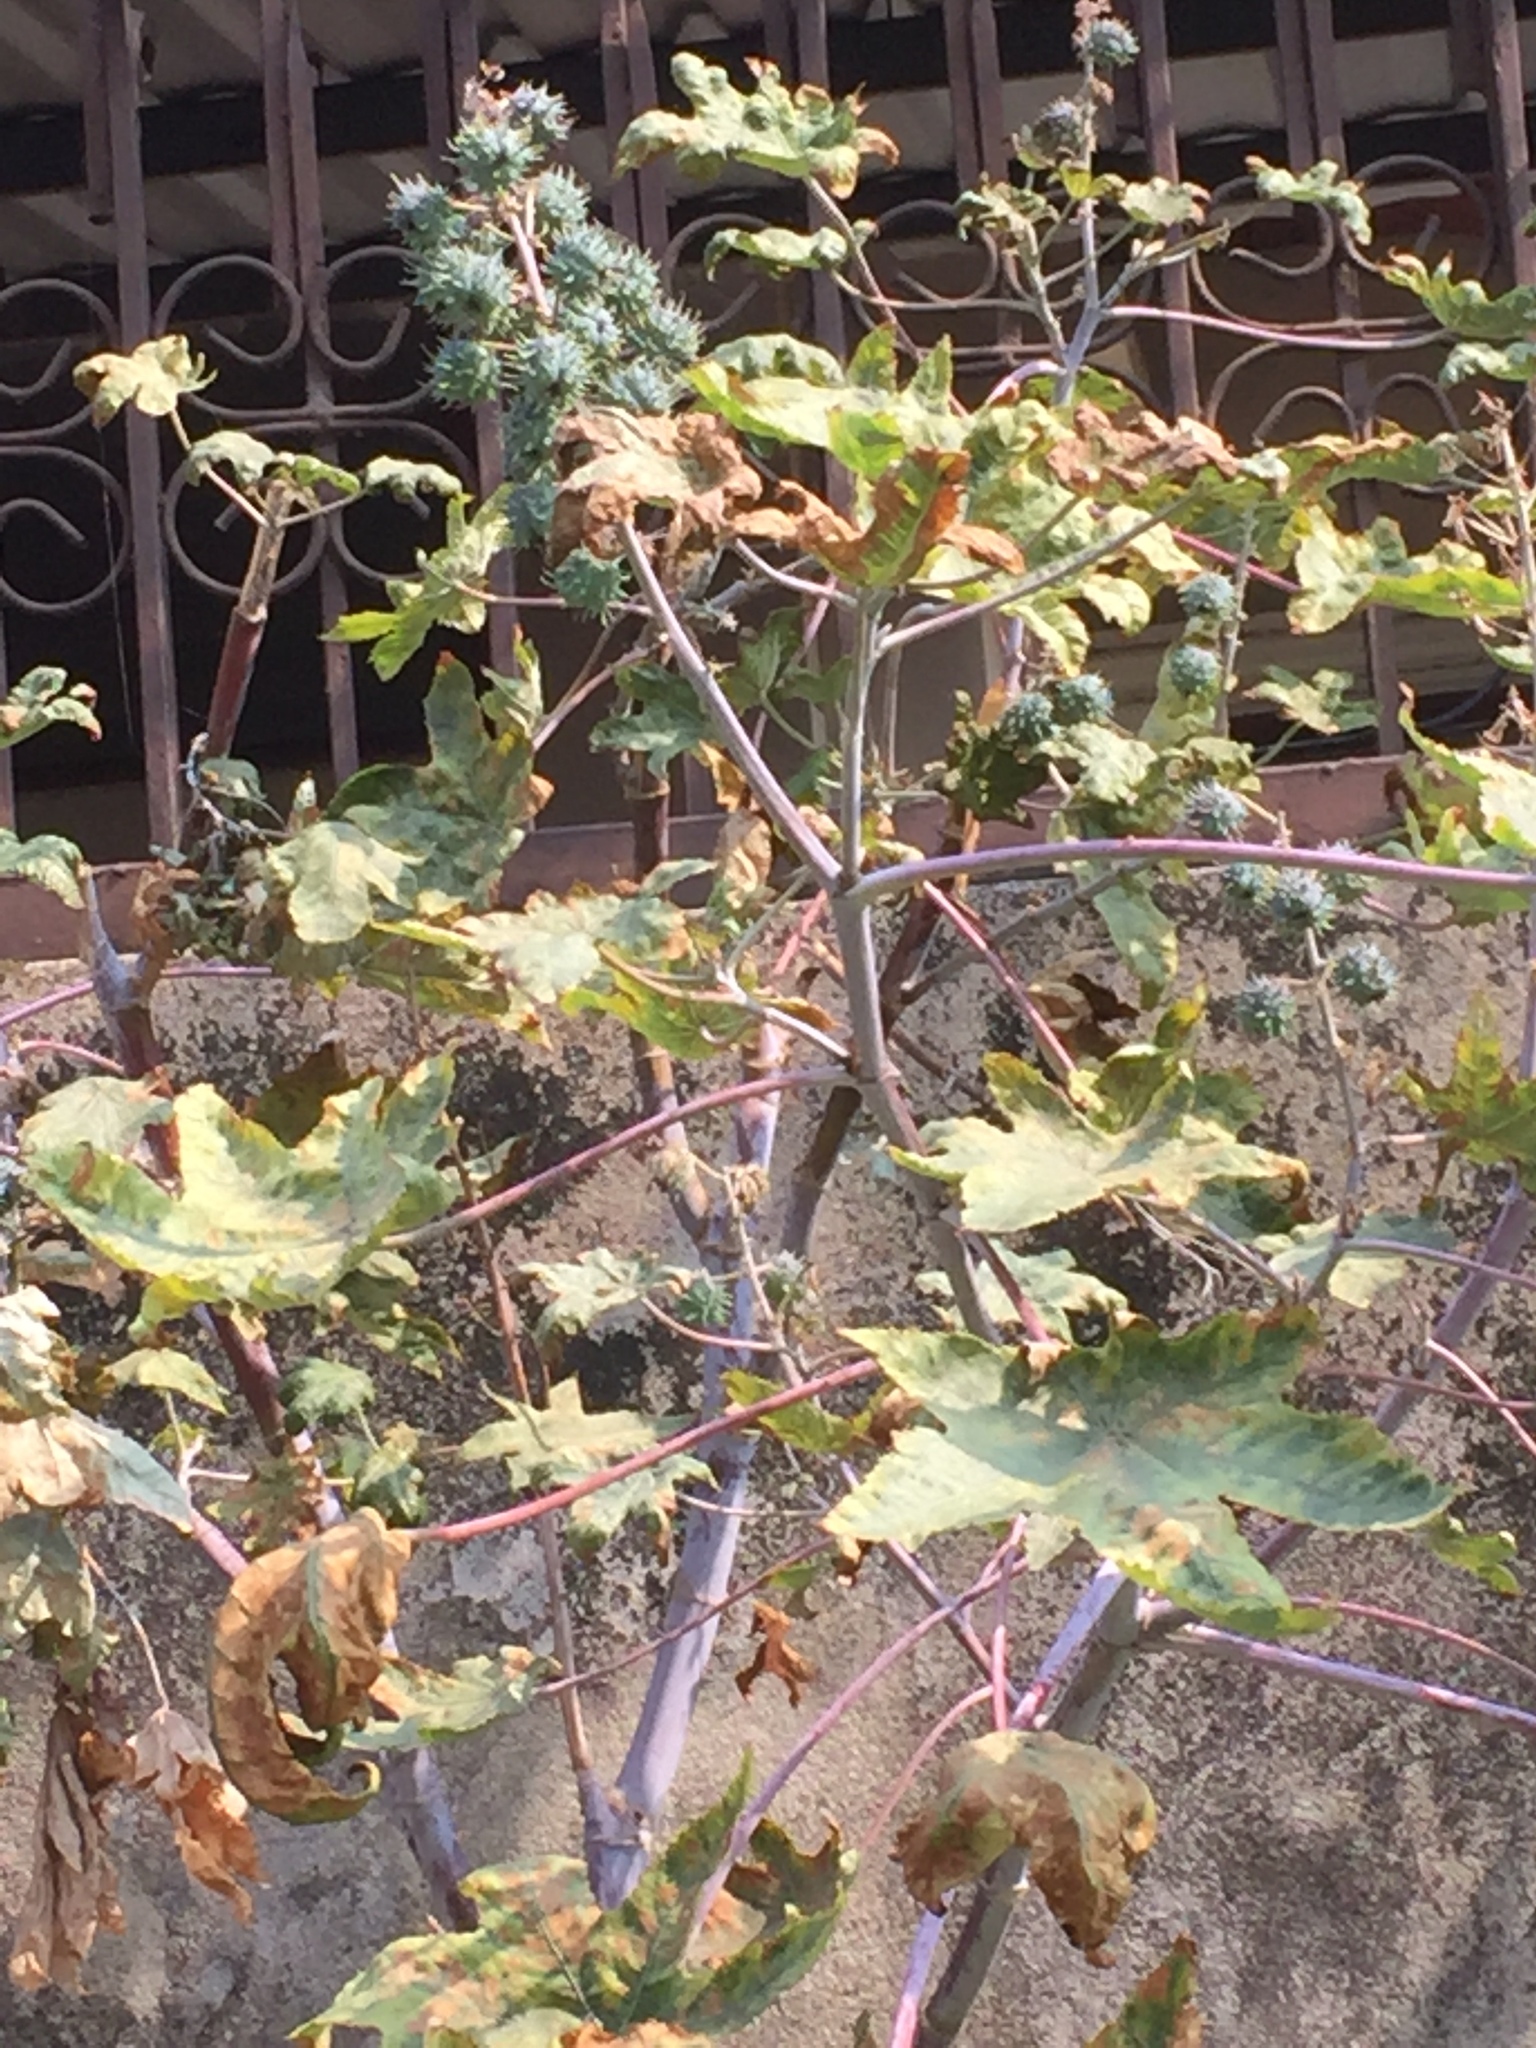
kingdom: Plantae
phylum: Tracheophyta
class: Magnoliopsida
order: Malpighiales
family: Euphorbiaceae
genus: Ricinus
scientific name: Ricinus communis
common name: Castor-oil-plant
